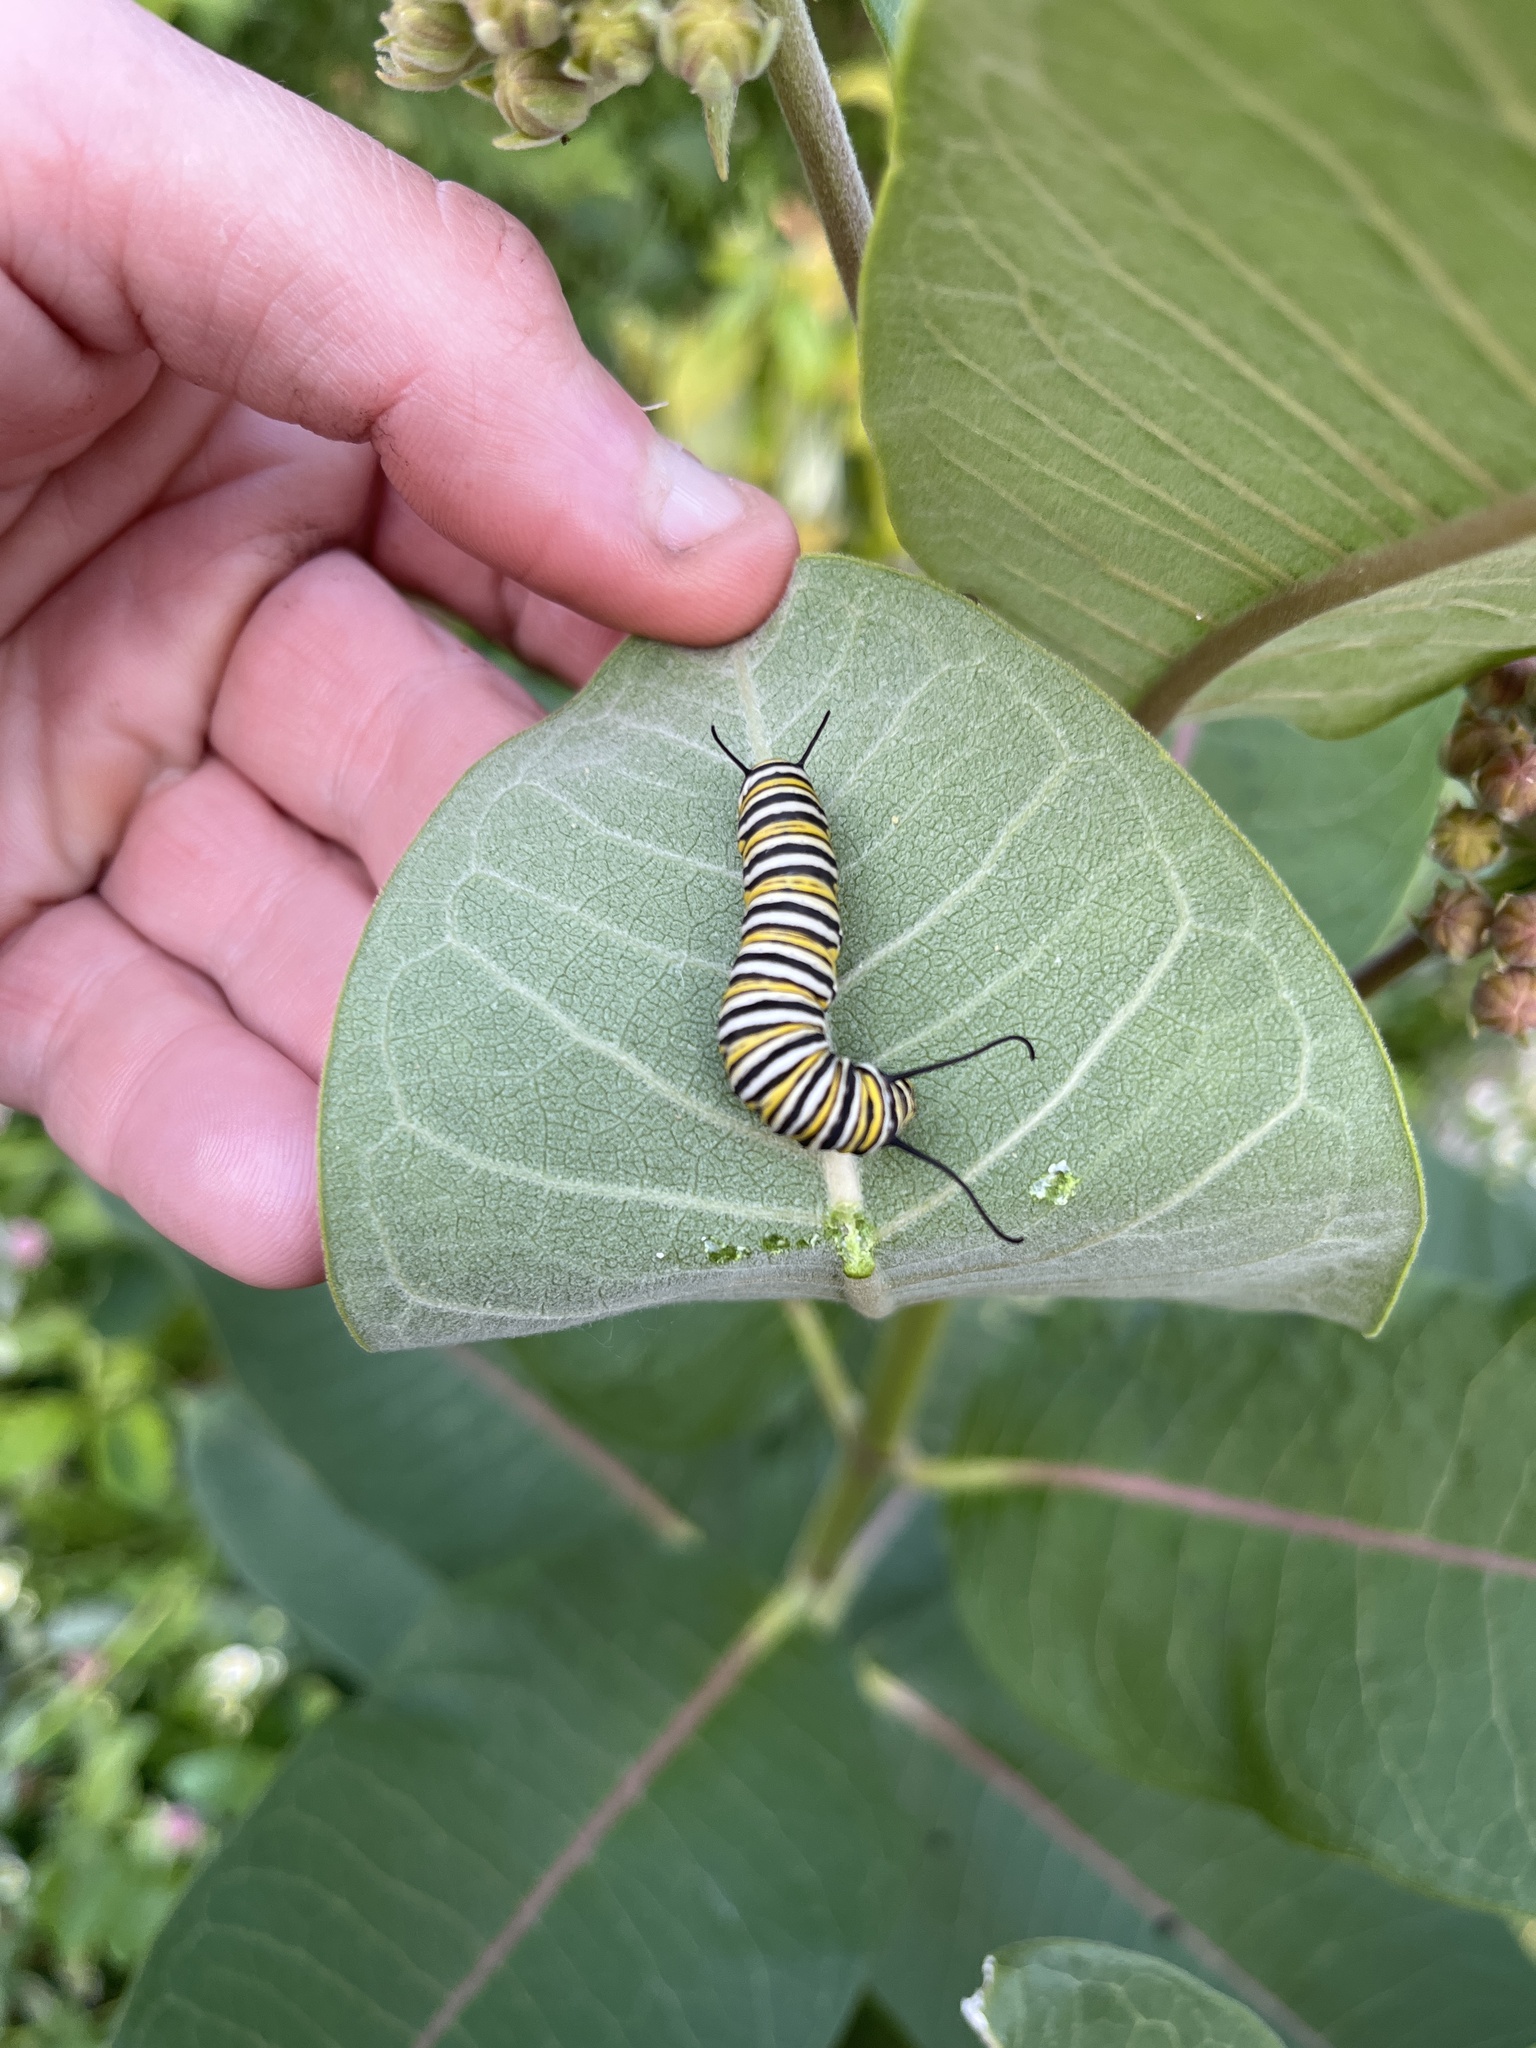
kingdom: Animalia
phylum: Arthropoda
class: Insecta
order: Lepidoptera
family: Nymphalidae
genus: Danaus
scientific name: Danaus plexippus
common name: Monarch
